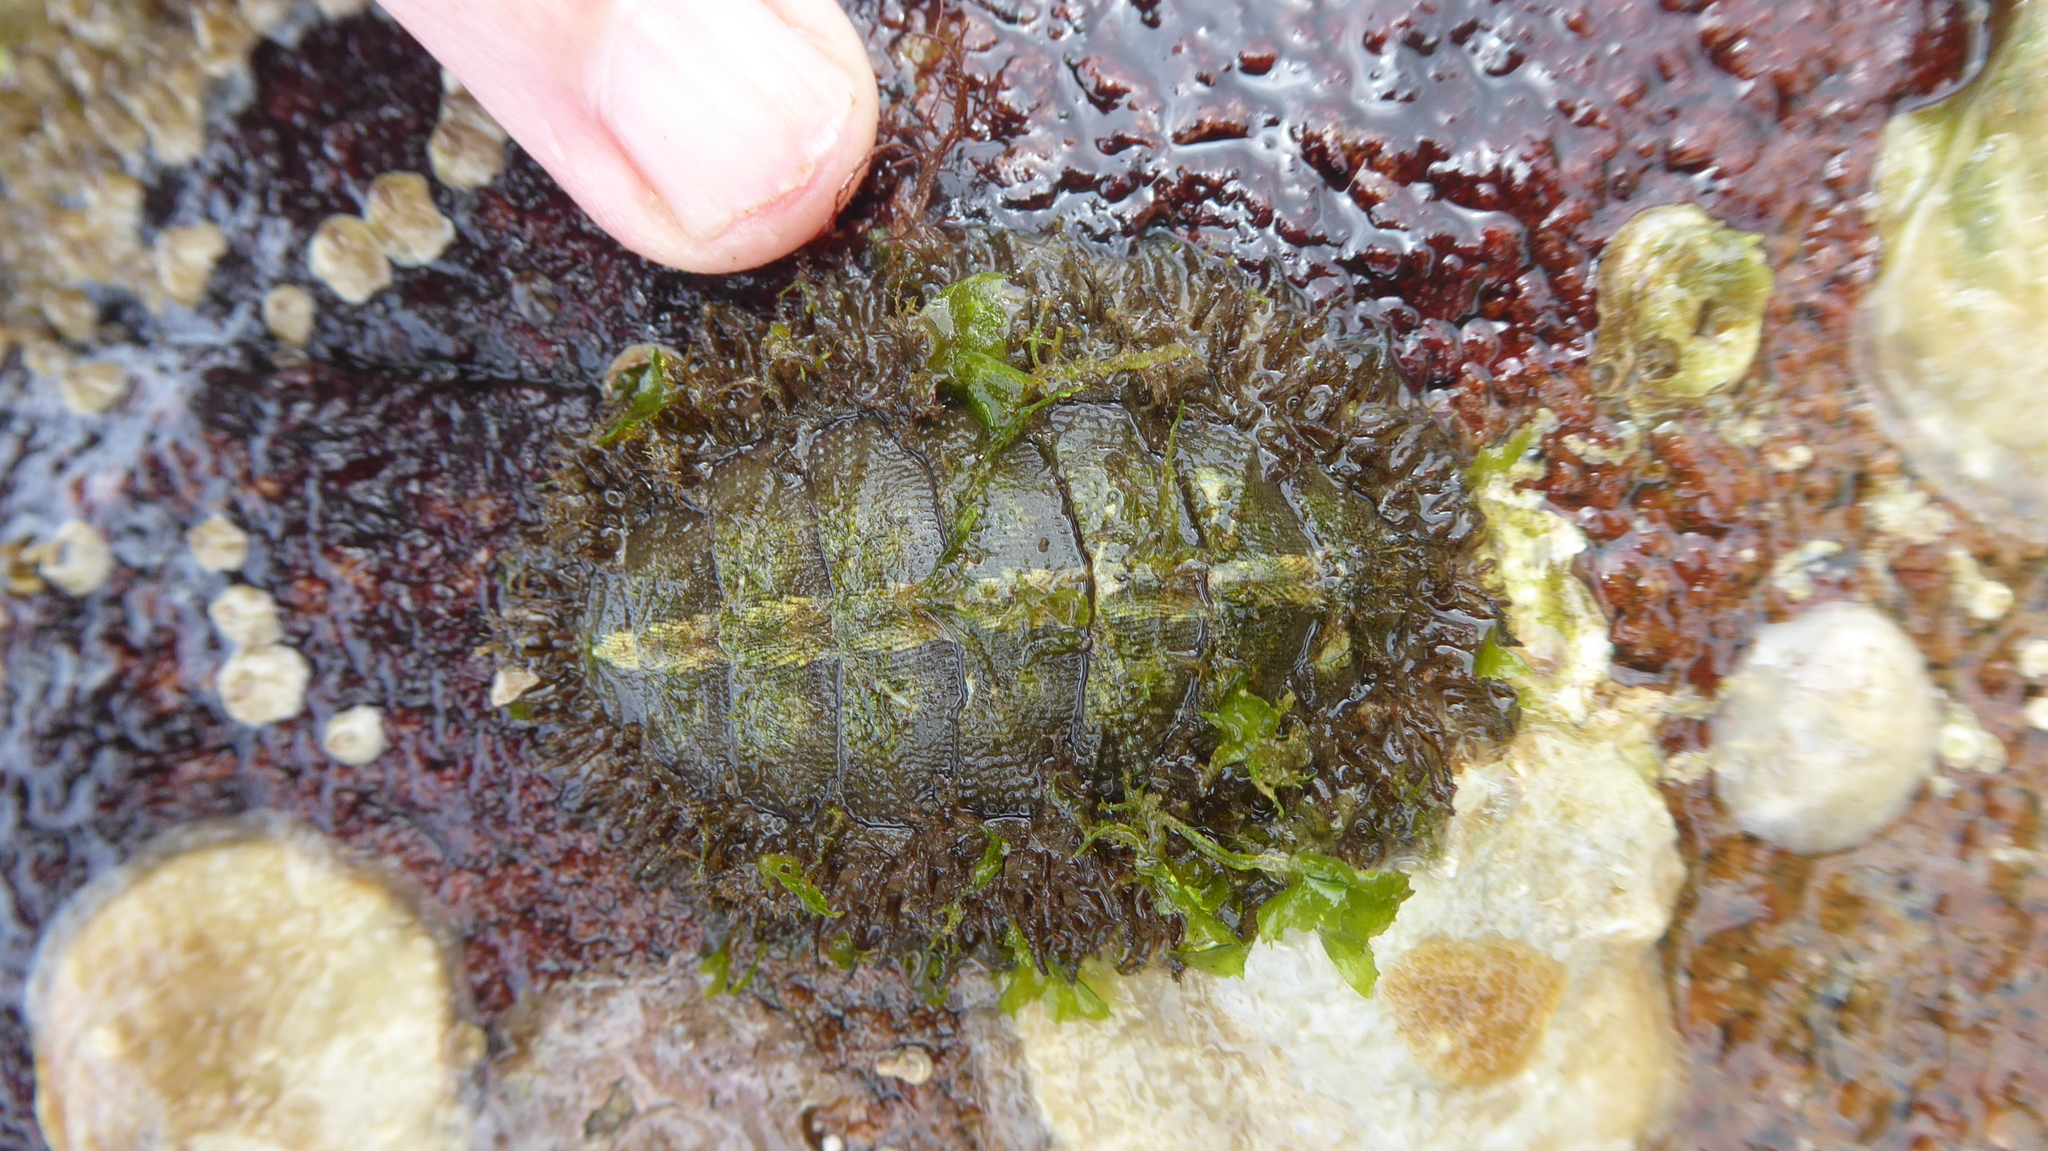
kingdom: Animalia
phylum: Mollusca
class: Polyplacophora
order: Chitonida
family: Mopaliidae
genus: Mopalia
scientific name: Mopalia muscosa
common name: Mossy chiton
